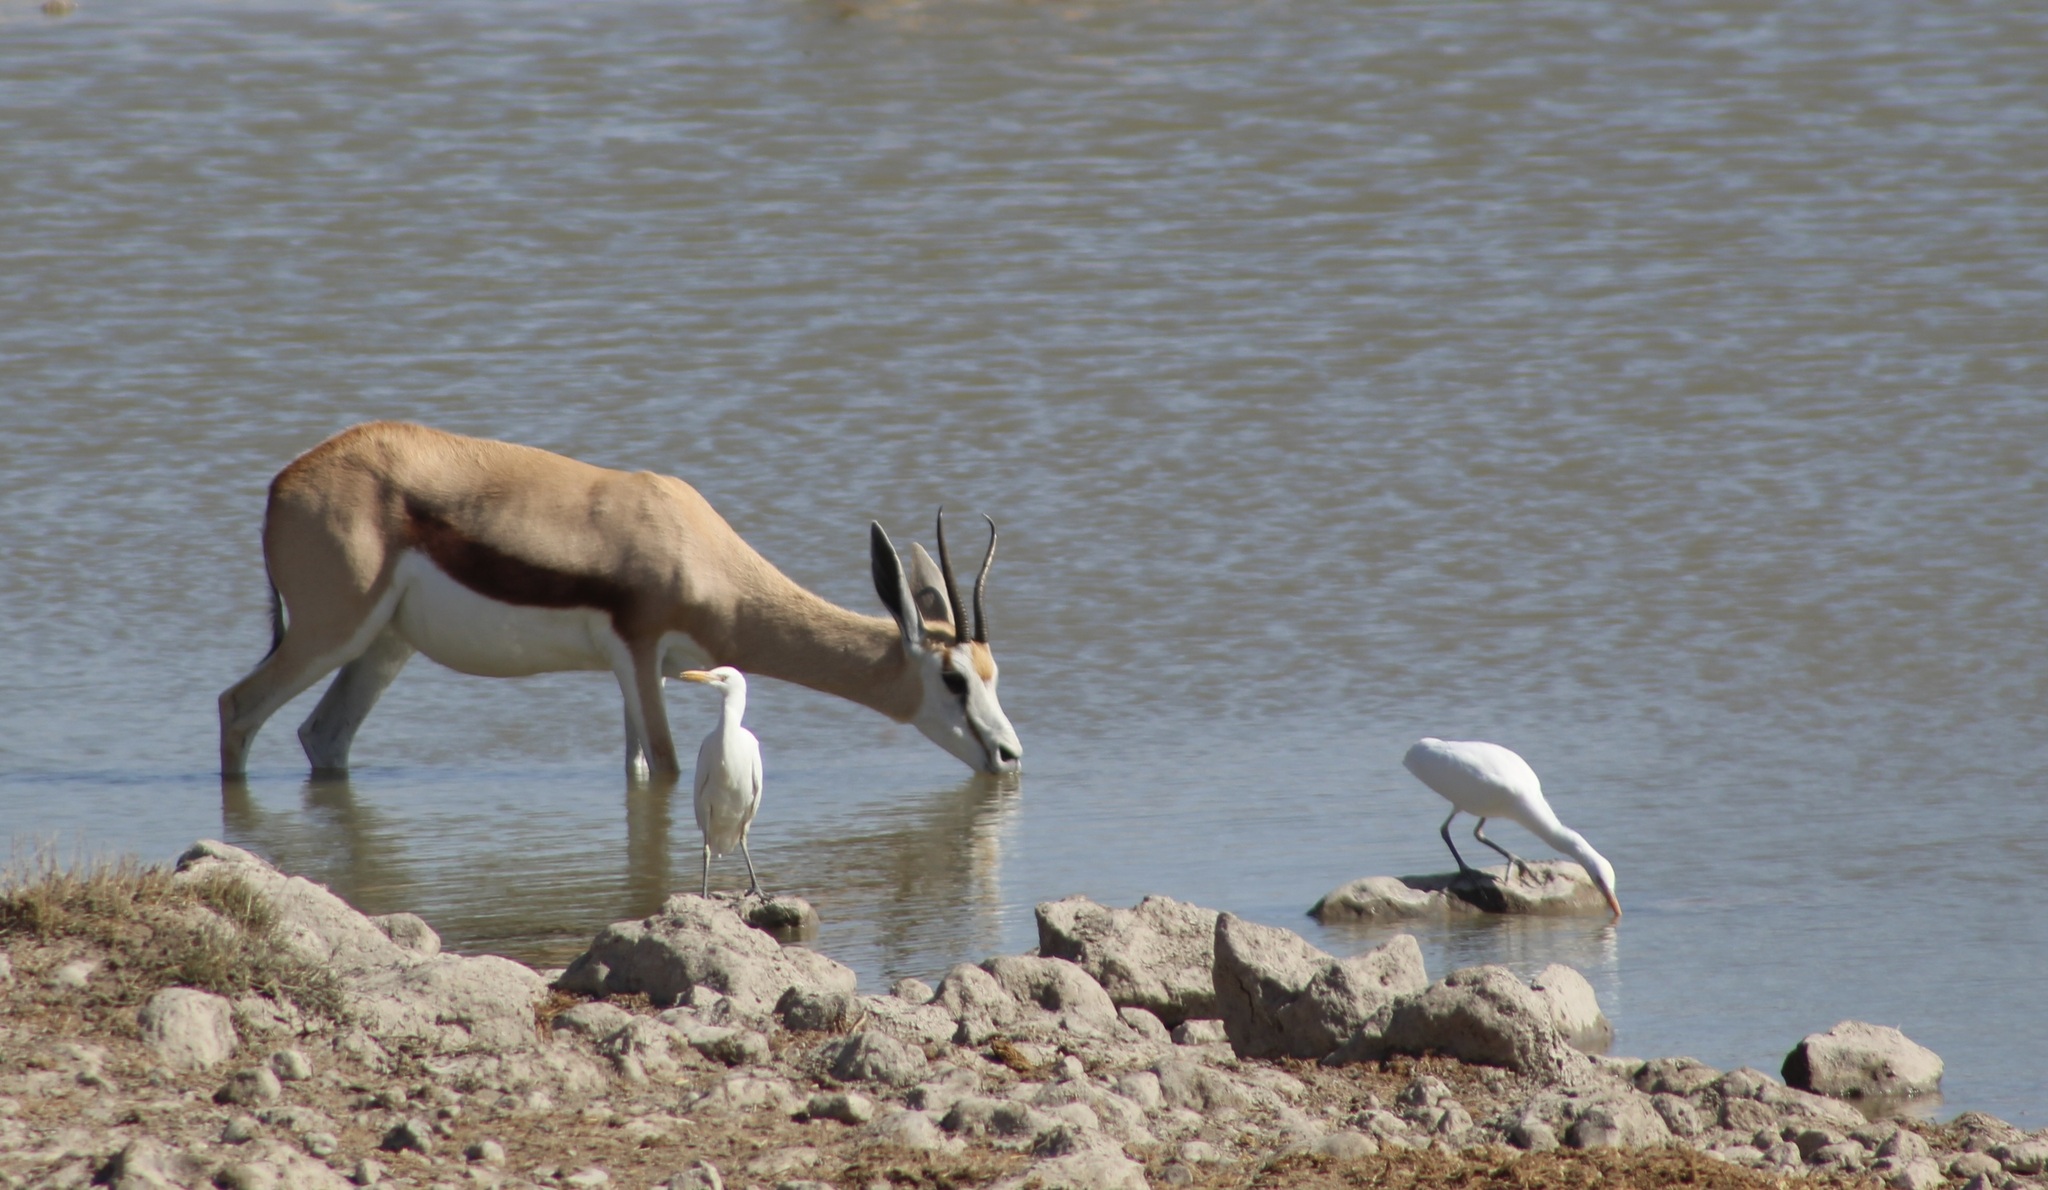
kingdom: Animalia
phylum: Chordata
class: Mammalia
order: Artiodactyla
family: Bovidae
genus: Antidorcas
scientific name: Antidorcas marsupialis
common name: Springbok
